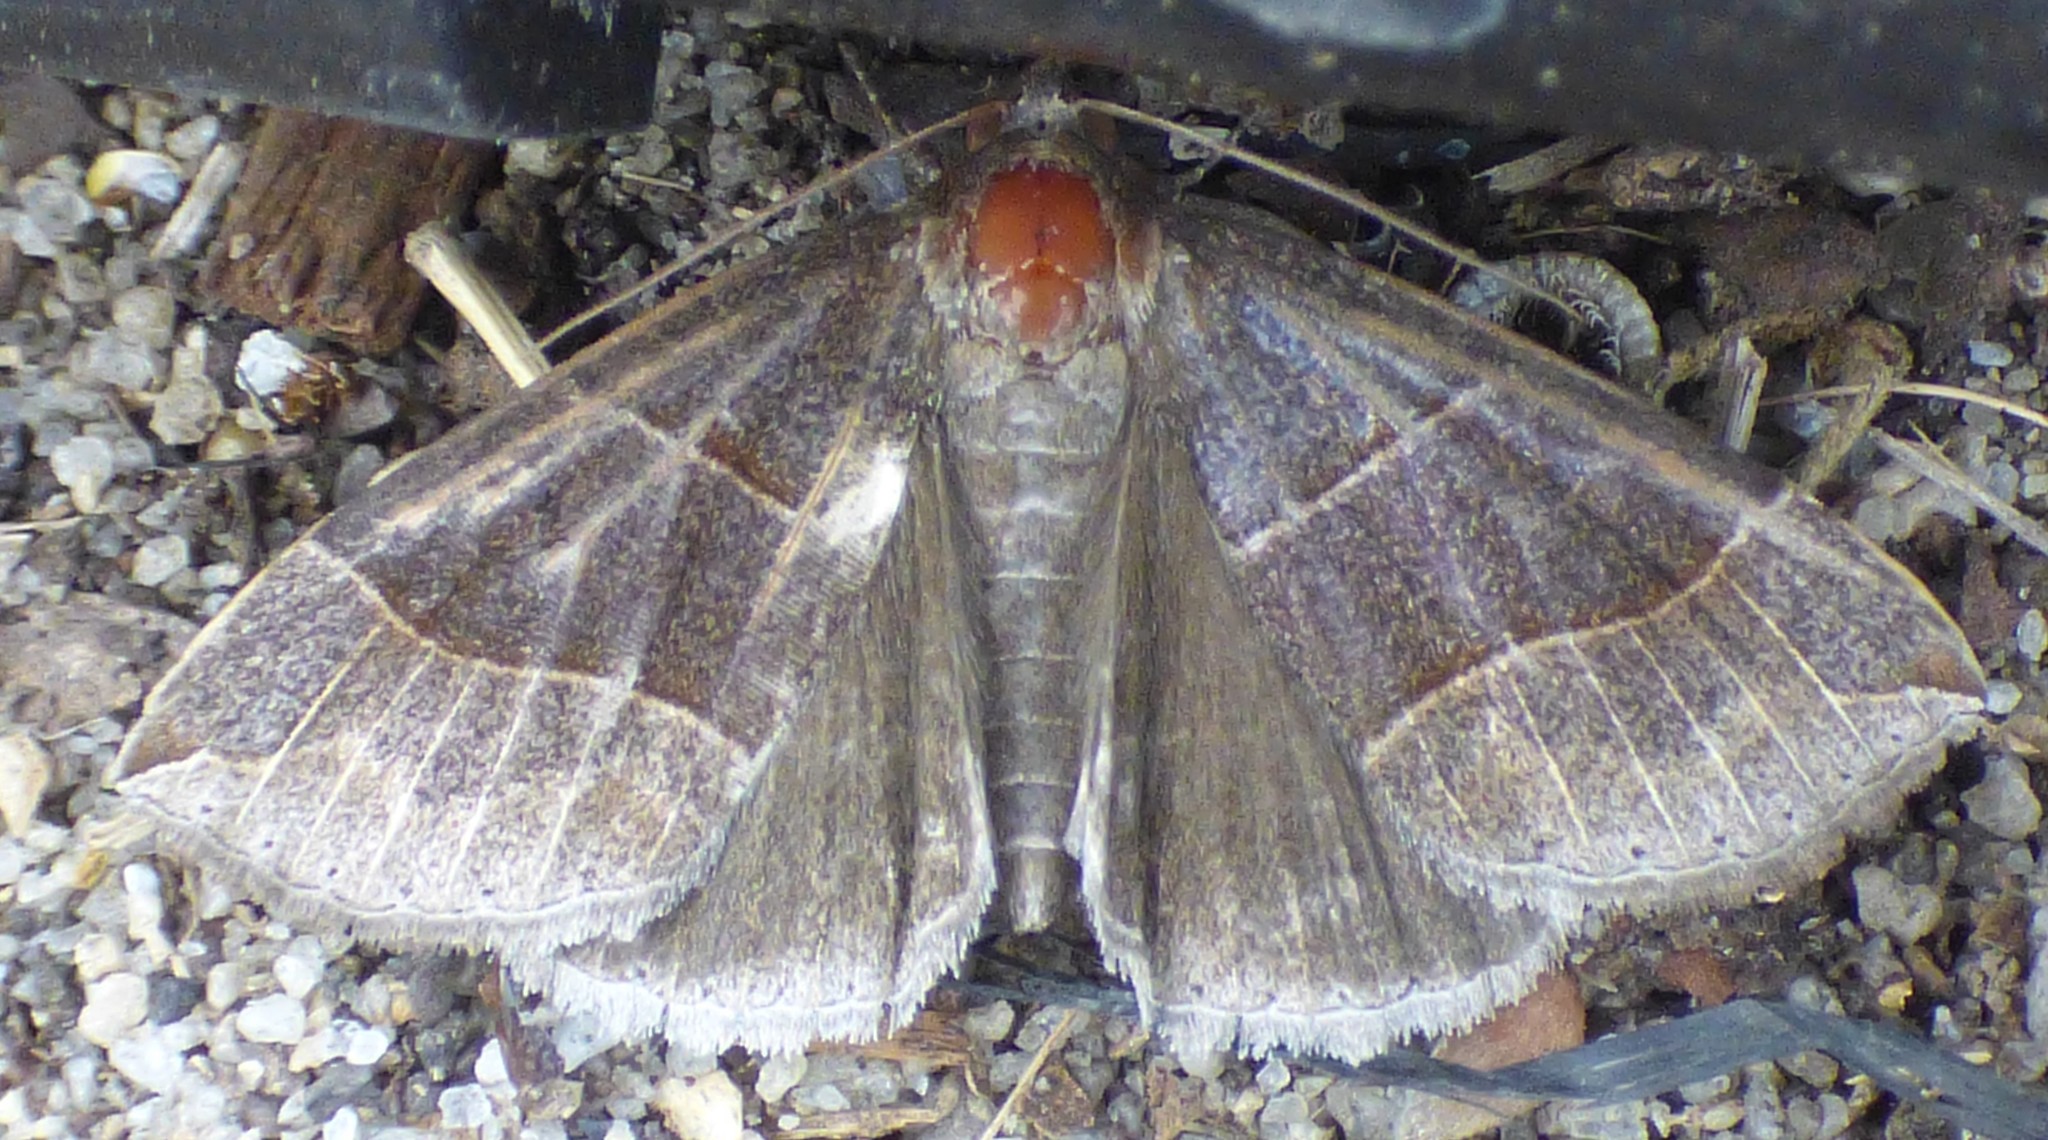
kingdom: Animalia
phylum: Arthropoda
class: Insecta
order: Lepidoptera
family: Erebidae
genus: Parallelia
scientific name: Parallelia bistriaris
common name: Maple looper moth
